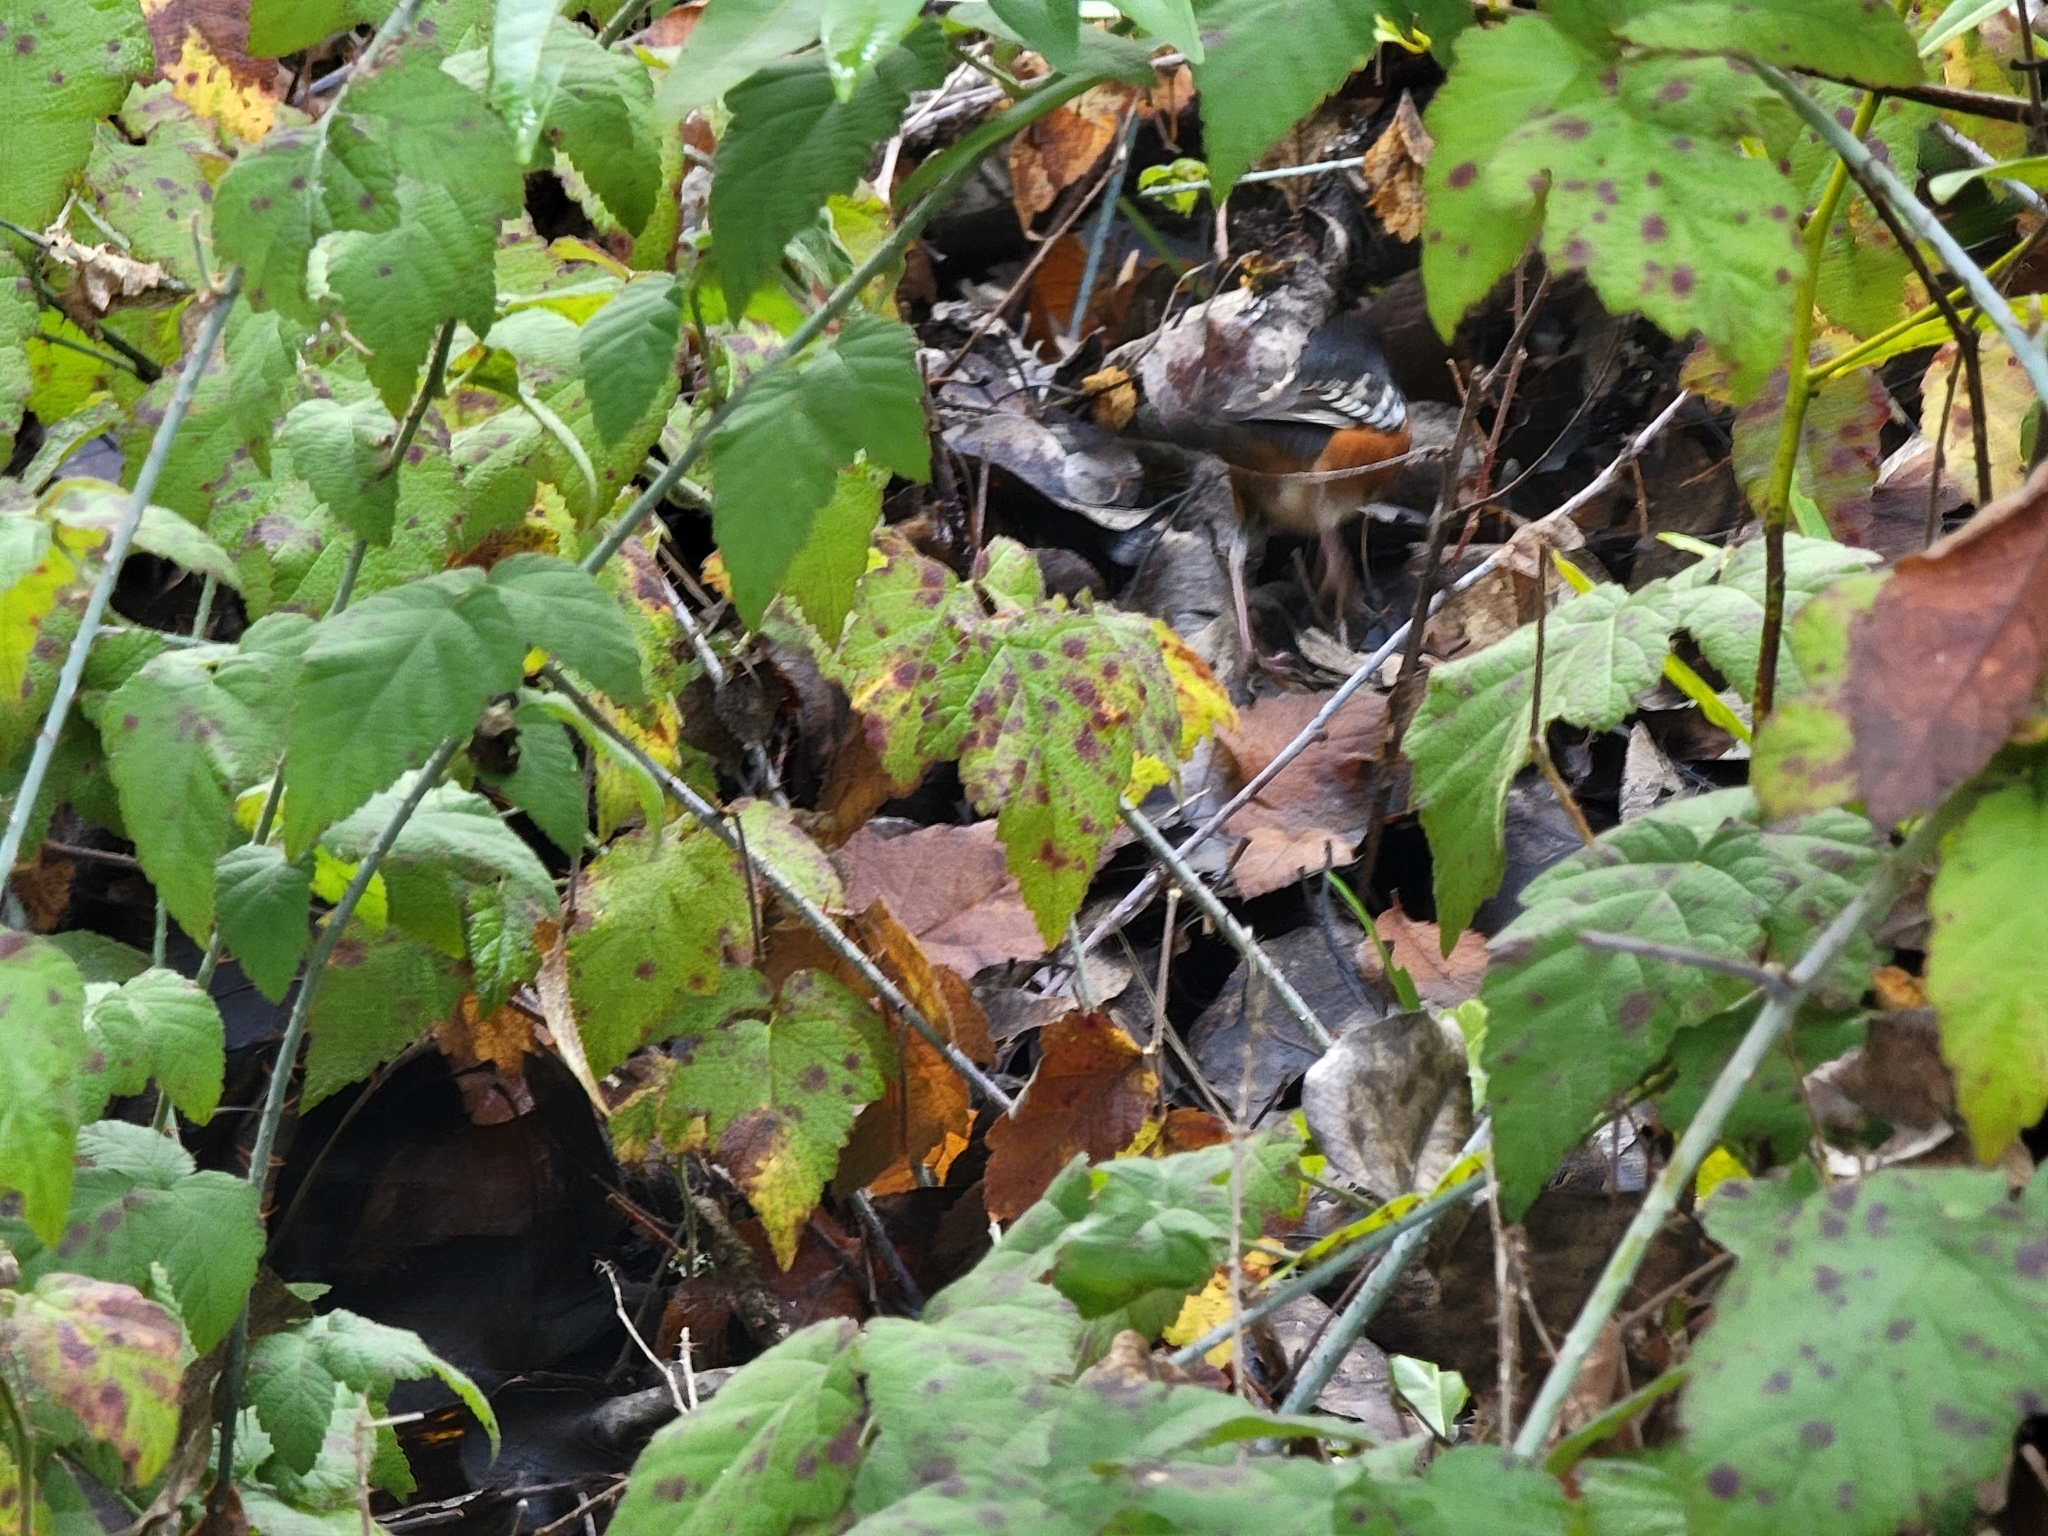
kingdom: Animalia
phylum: Chordata
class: Aves
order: Passeriformes
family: Passerellidae
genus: Pipilo
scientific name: Pipilo maculatus
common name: Spotted towhee
